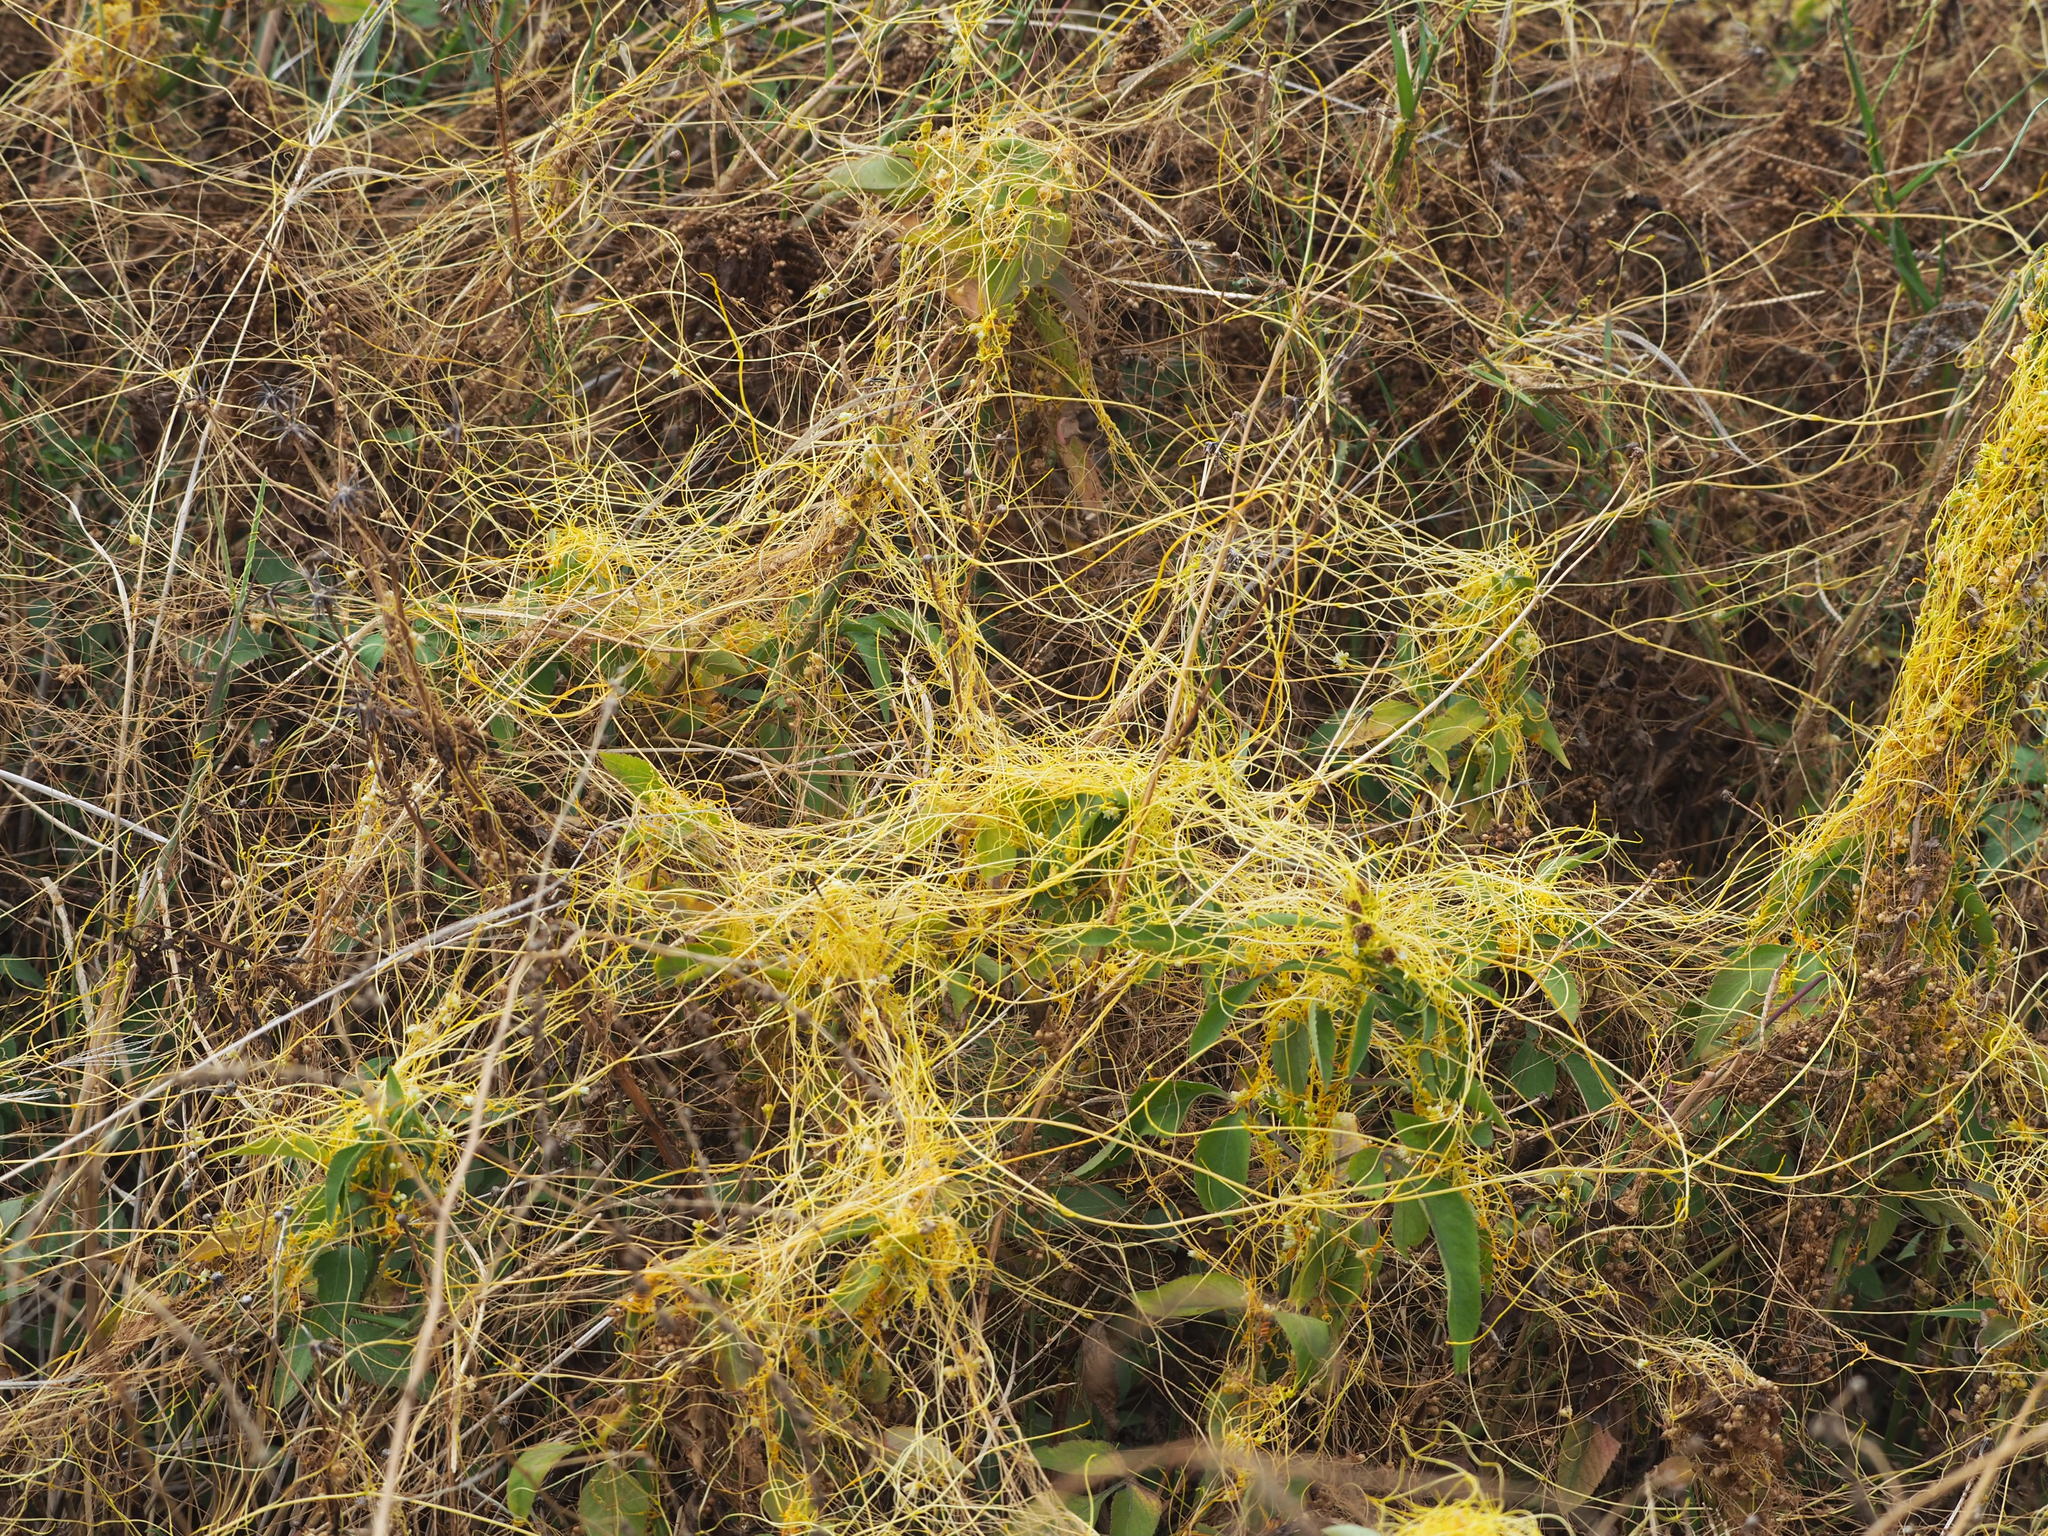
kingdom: Plantae
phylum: Tracheophyta
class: Magnoliopsida
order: Solanales
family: Convolvulaceae
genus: Cuscuta
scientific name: Cuscuta campestris
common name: Yellow dodder
